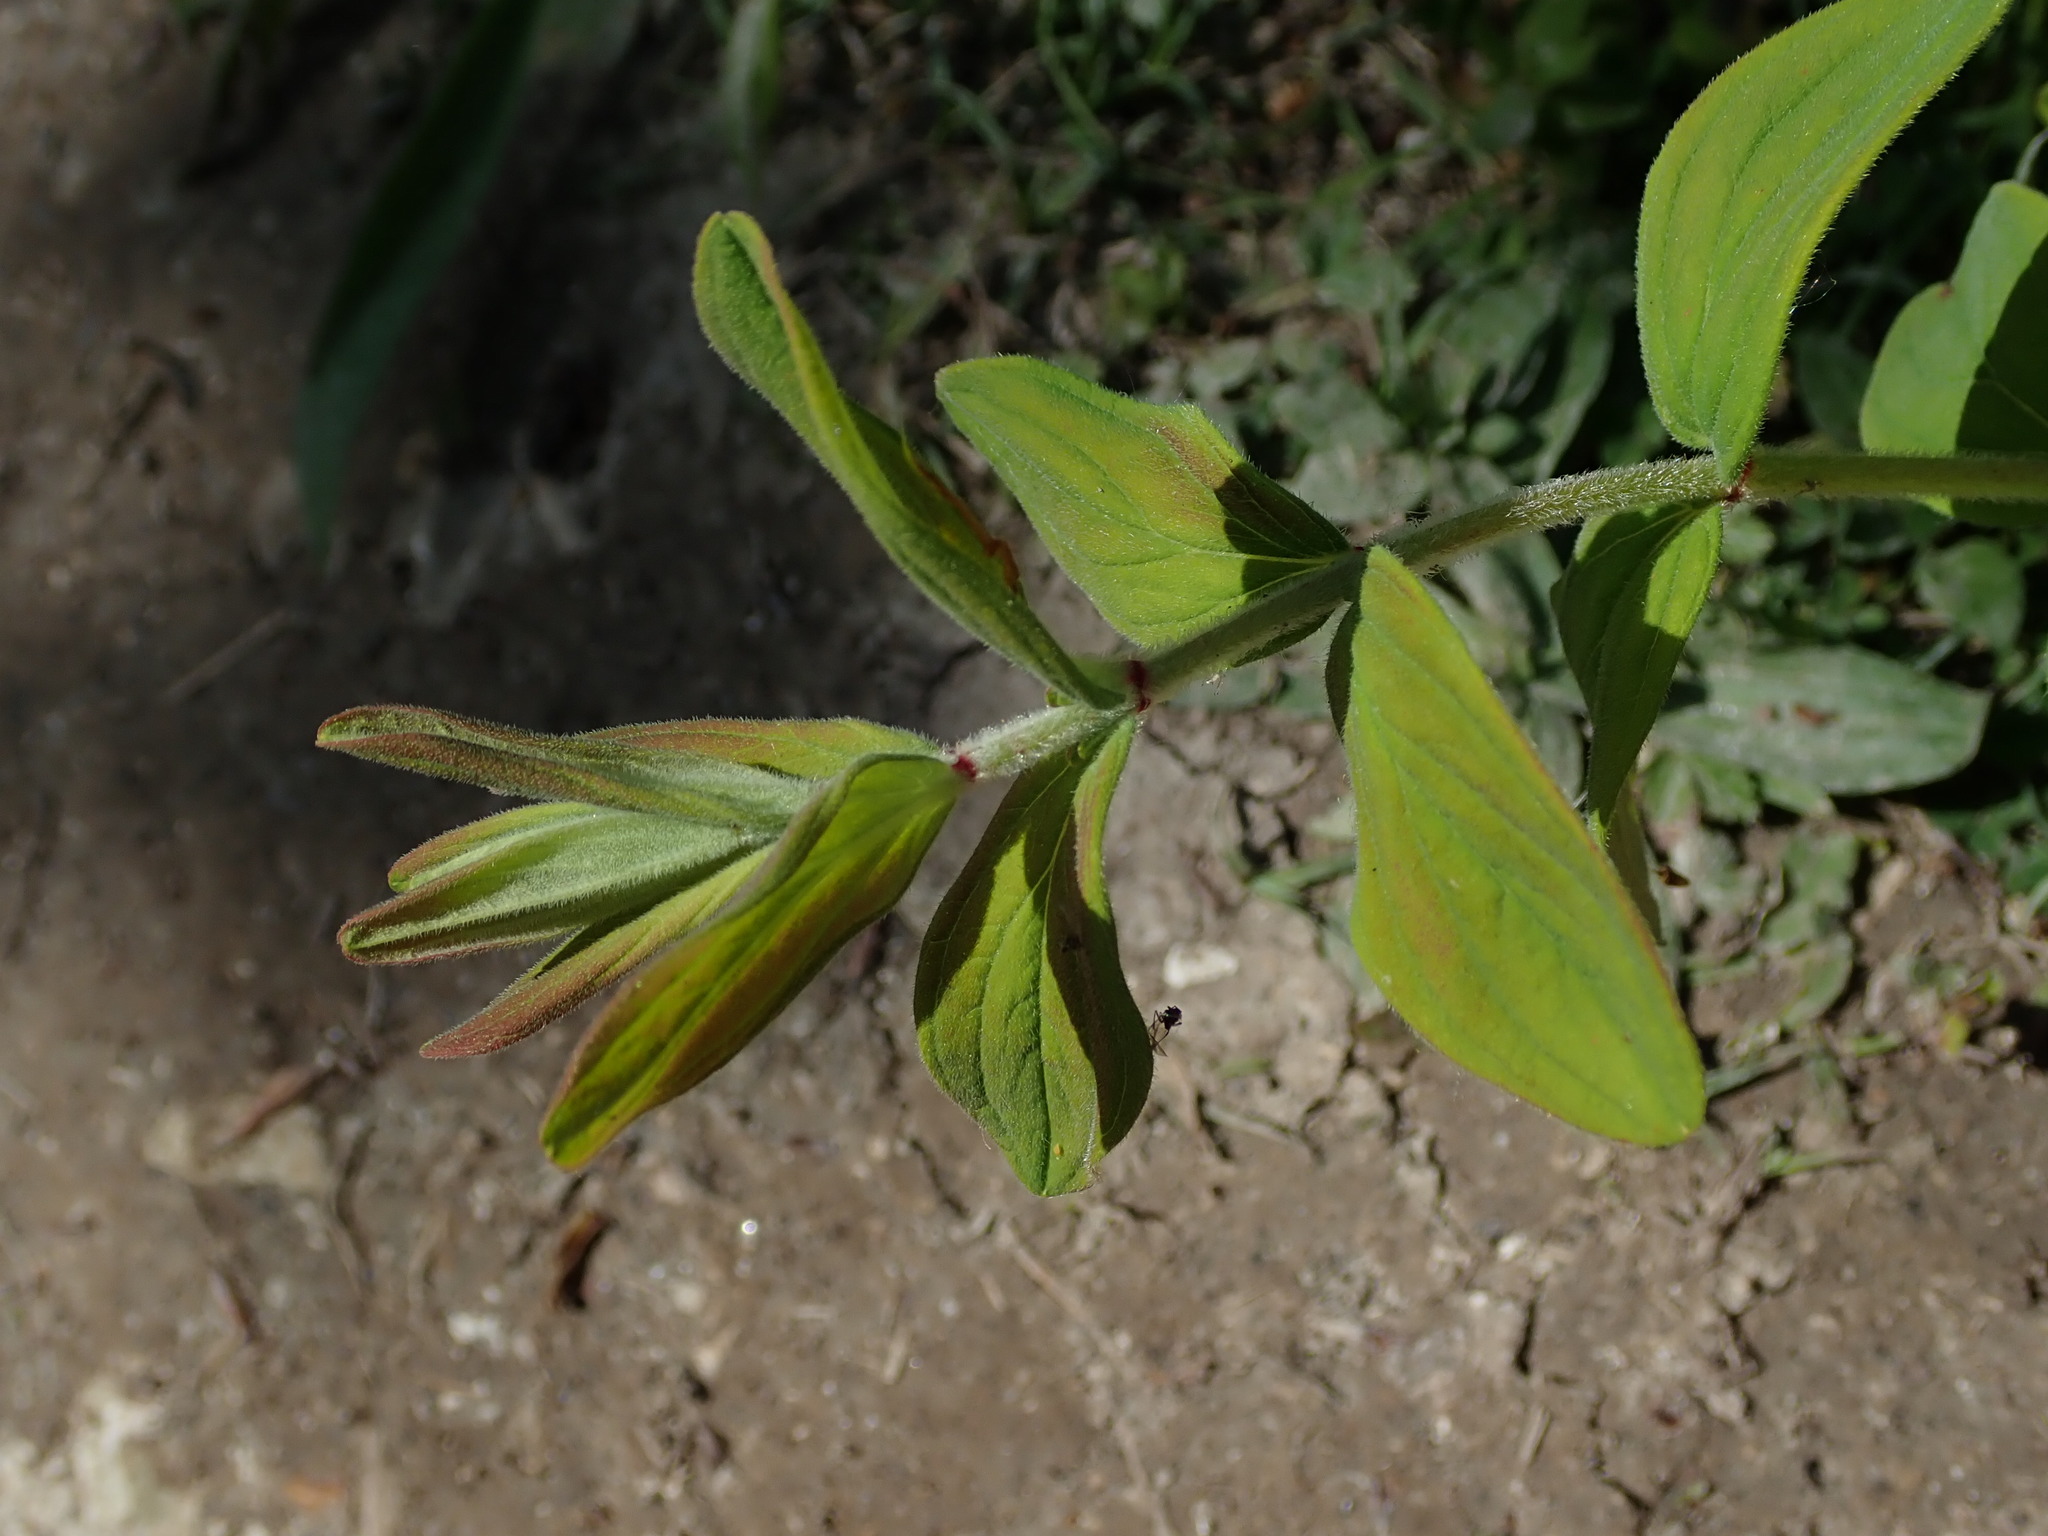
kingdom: Plantae
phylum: Tracheophyta
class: Magnoliopsida
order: Malpighiales
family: Hypericaceae
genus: Hypericum
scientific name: Hypericum hirsutum
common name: Hairy st. john's-wort
